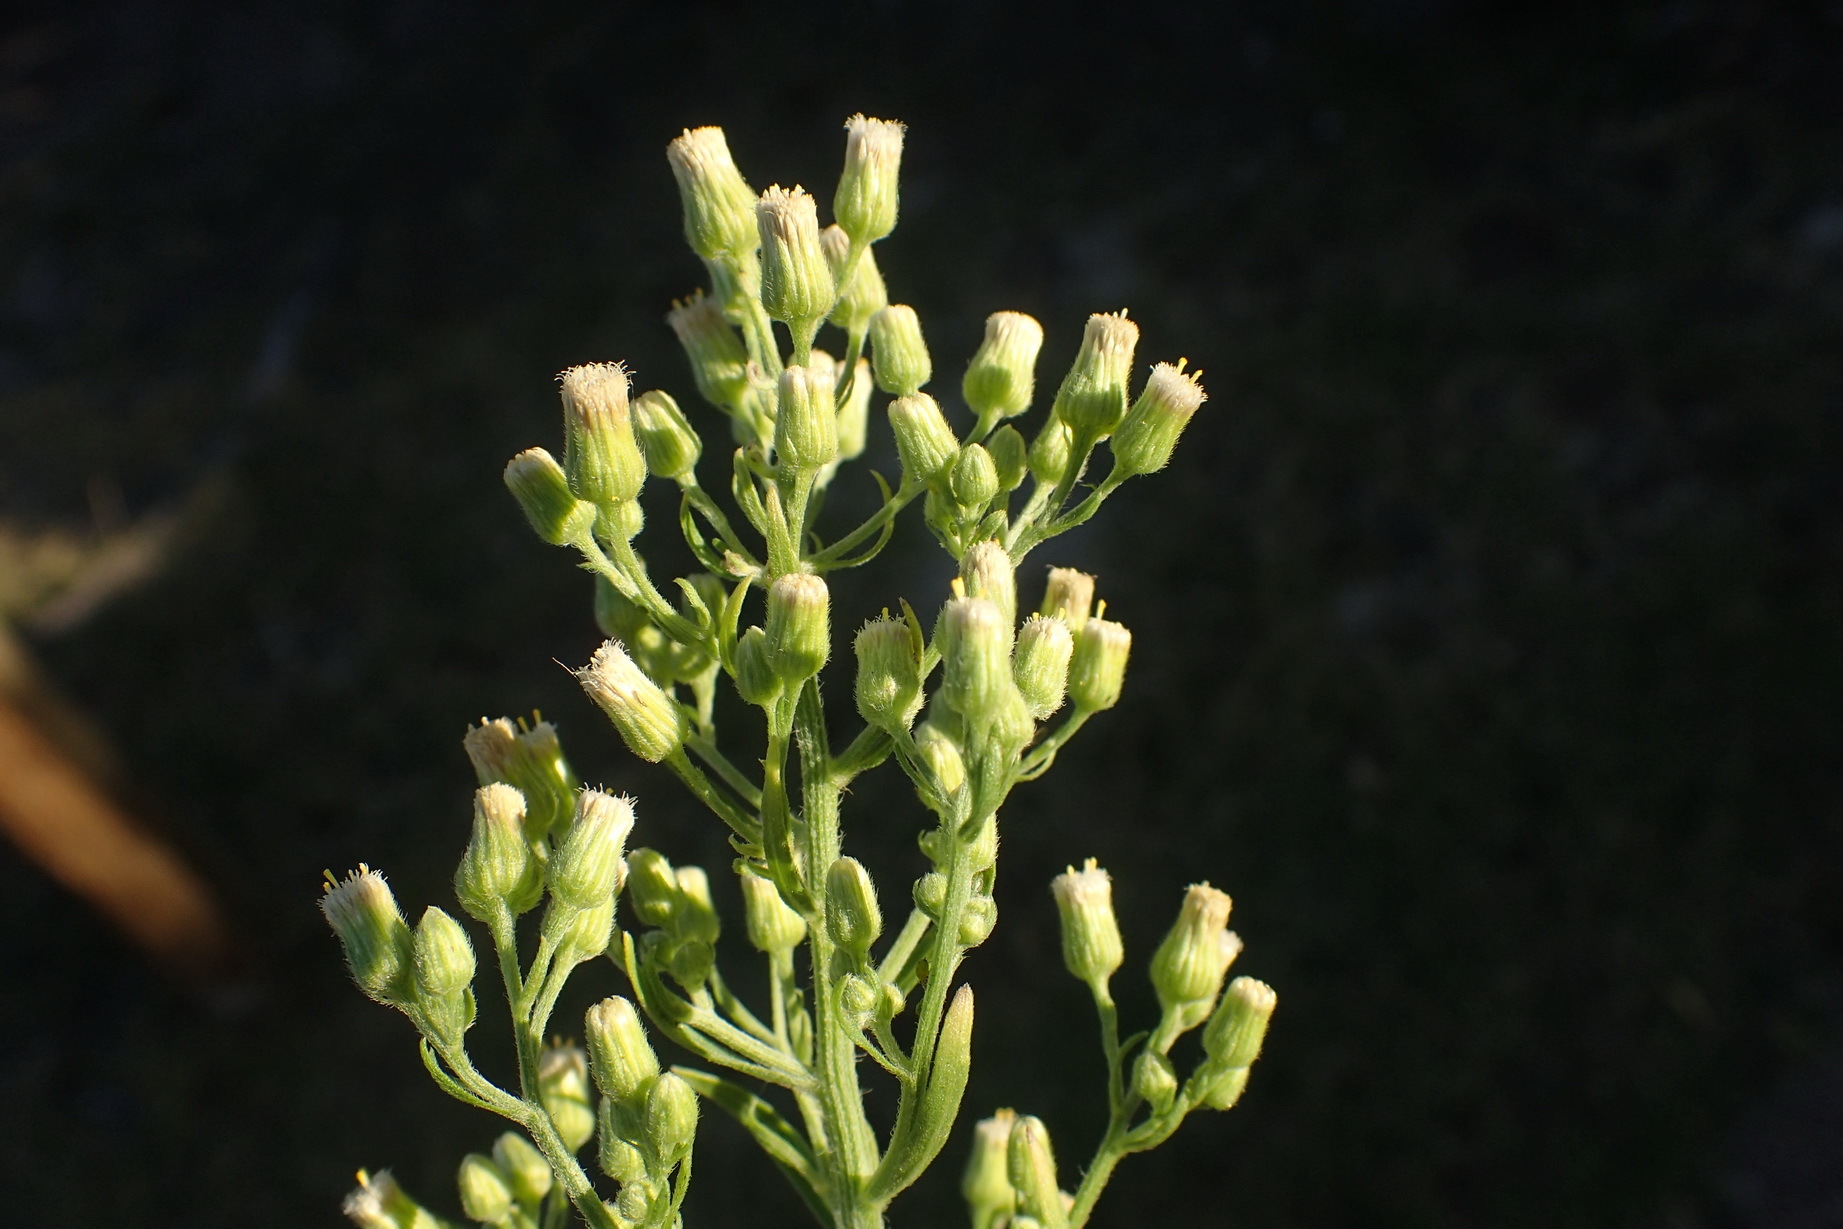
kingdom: Plantae
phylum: Tracheophyta
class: Magnoliopsida
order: Asterales
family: Asteraceae
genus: Erigeron
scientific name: Erigeron sumatrensis
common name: Daisy
